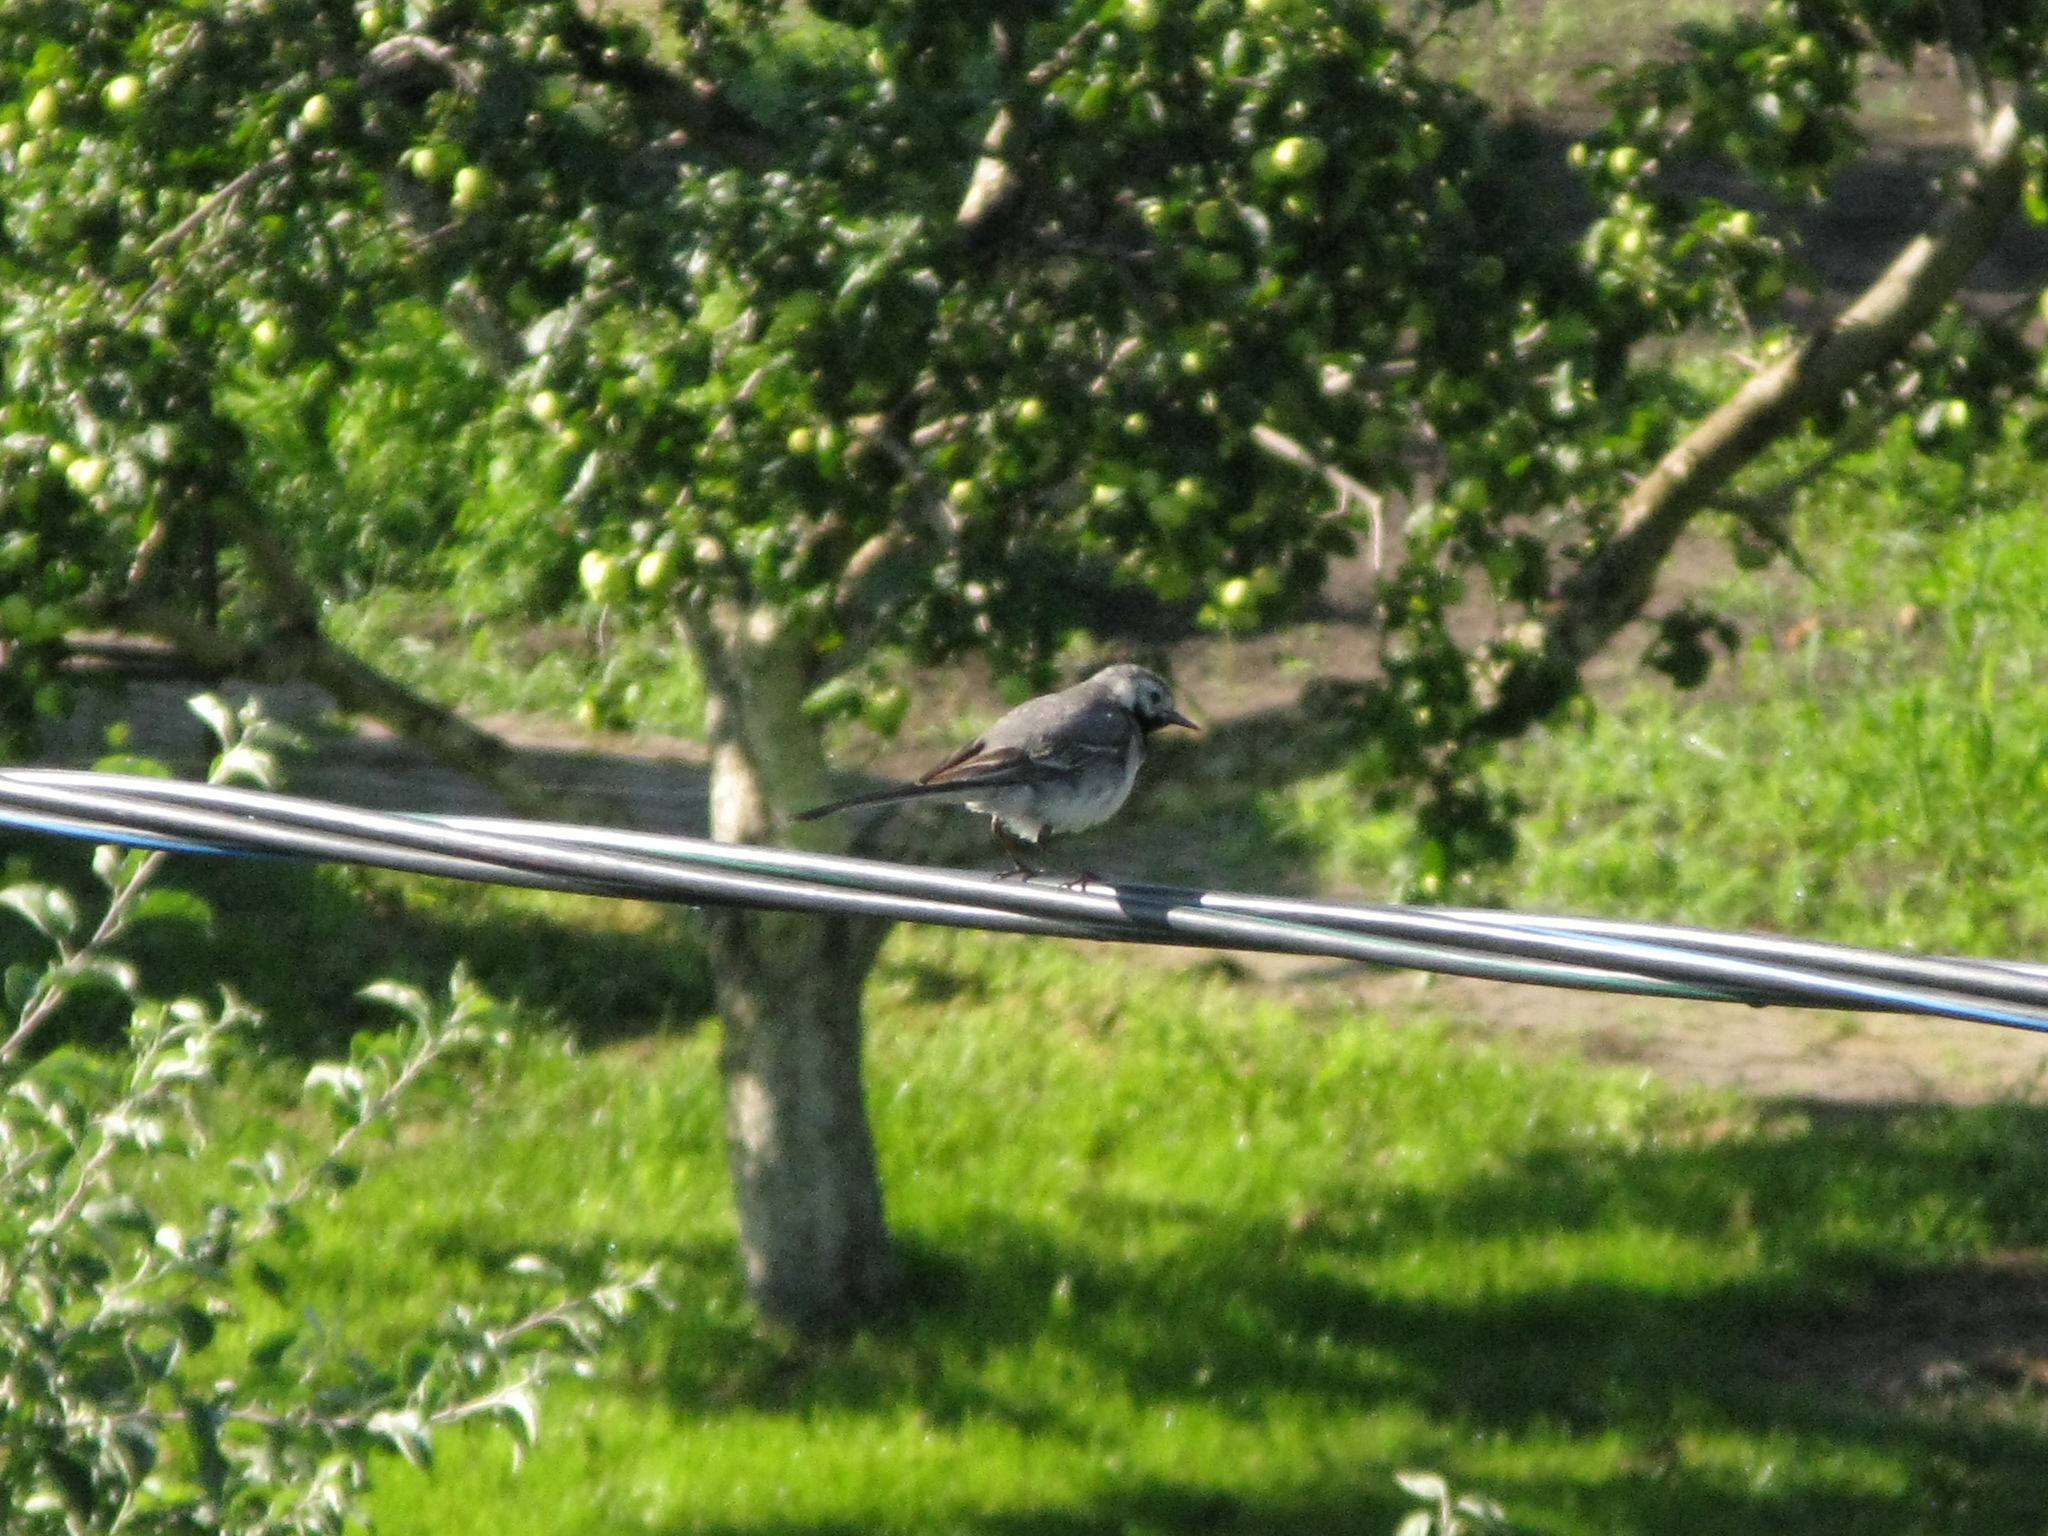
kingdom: Animalia
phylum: Chordata
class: Aves
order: Passeriformes
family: Motacillidae
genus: Motacilla
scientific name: Motacilla alba
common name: White wagtail
